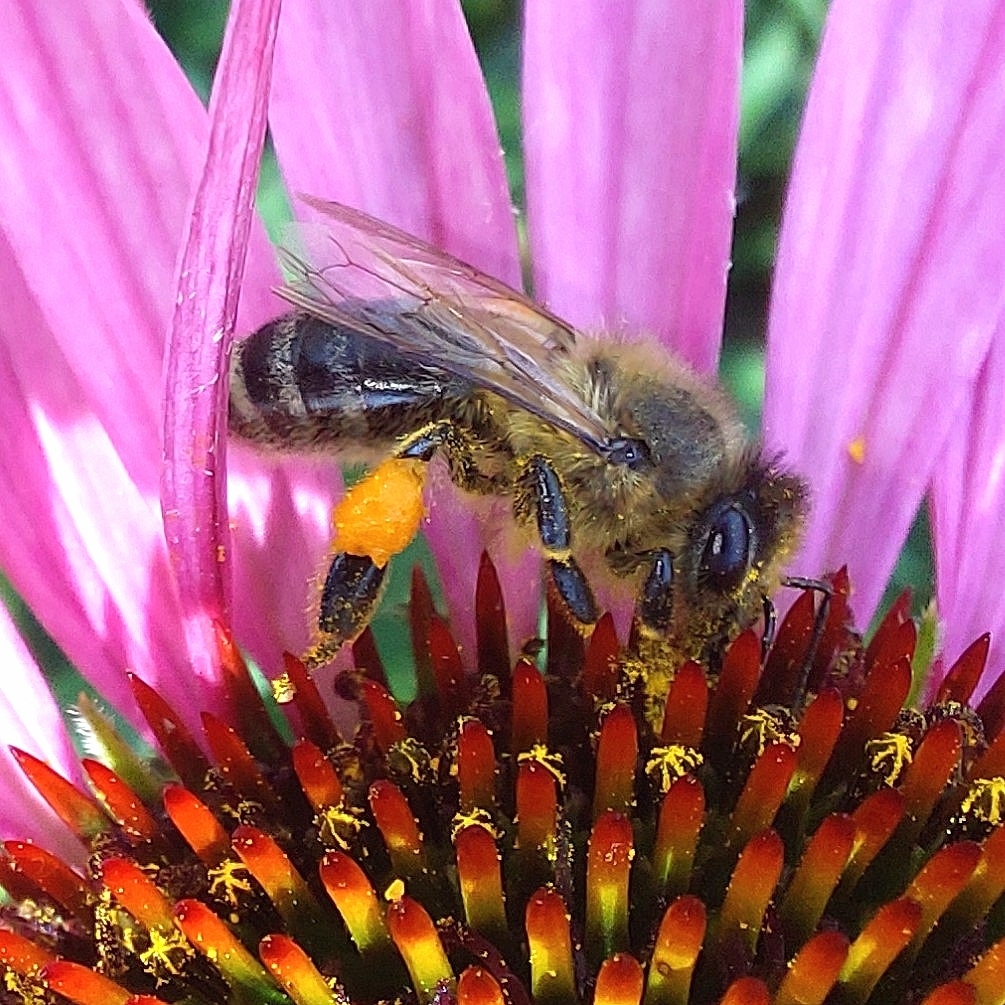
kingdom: Animalia
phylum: Arthropoda
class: Insecta
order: Hymenoptera
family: Apidae
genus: Apis
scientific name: Apis mellifera
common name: Honey bee
